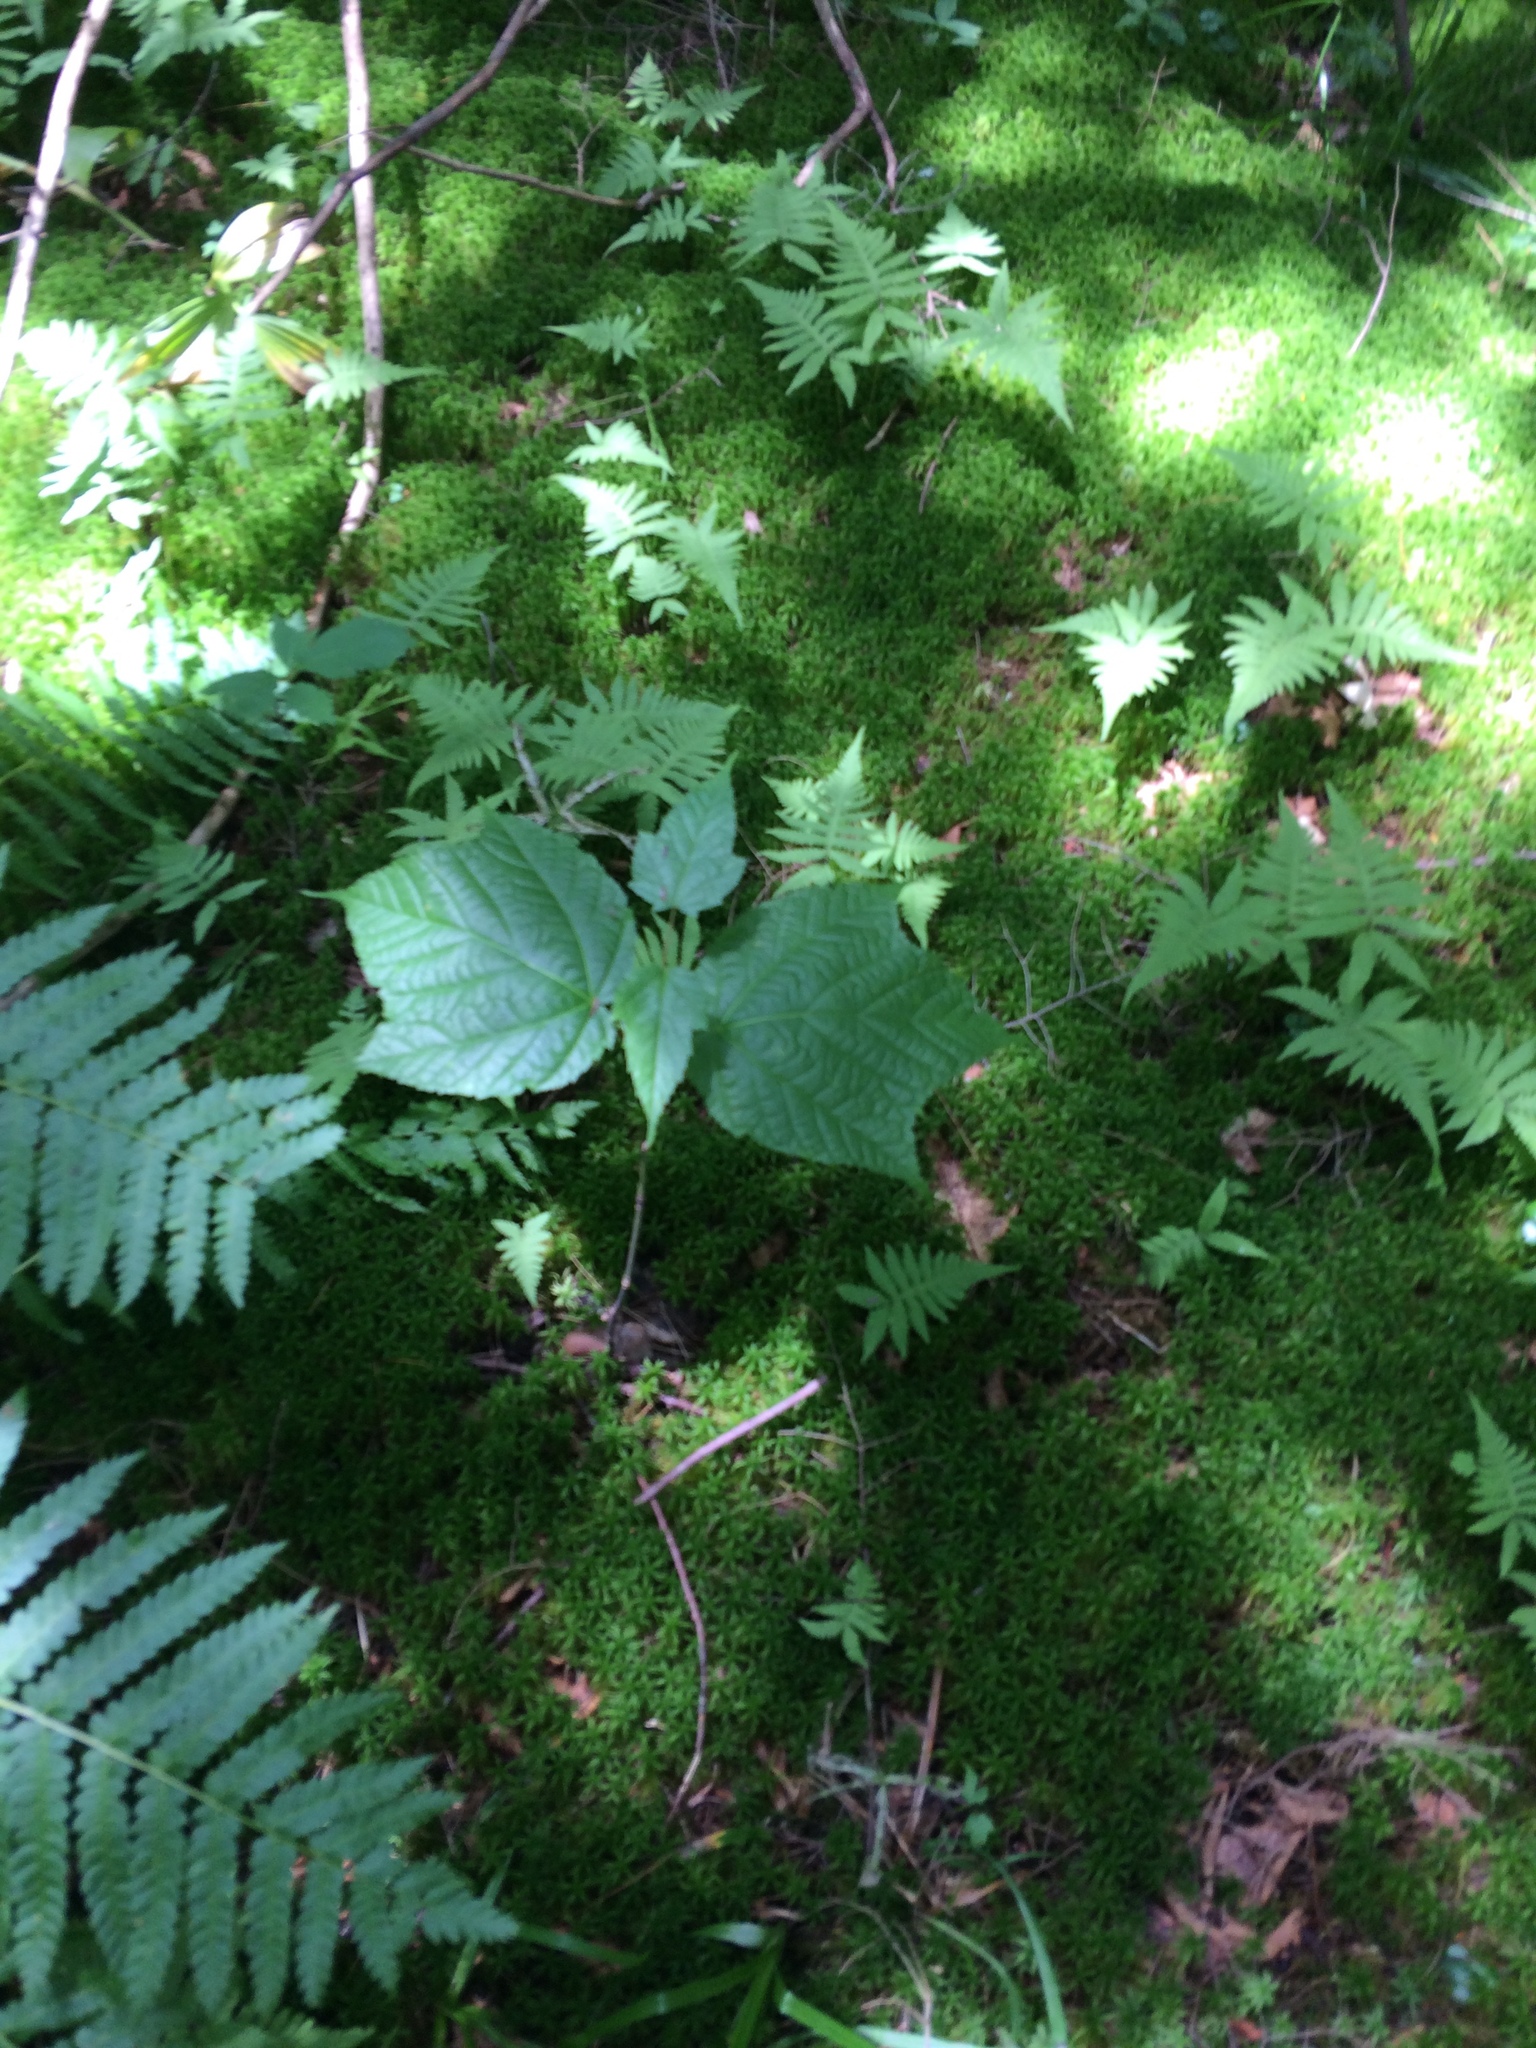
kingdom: Plantae
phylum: Tracheophyta
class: Magnoliopsida
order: Sapindales
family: Sapindaceae
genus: Acer
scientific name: Acer pensylvanicum
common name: Moosewood
